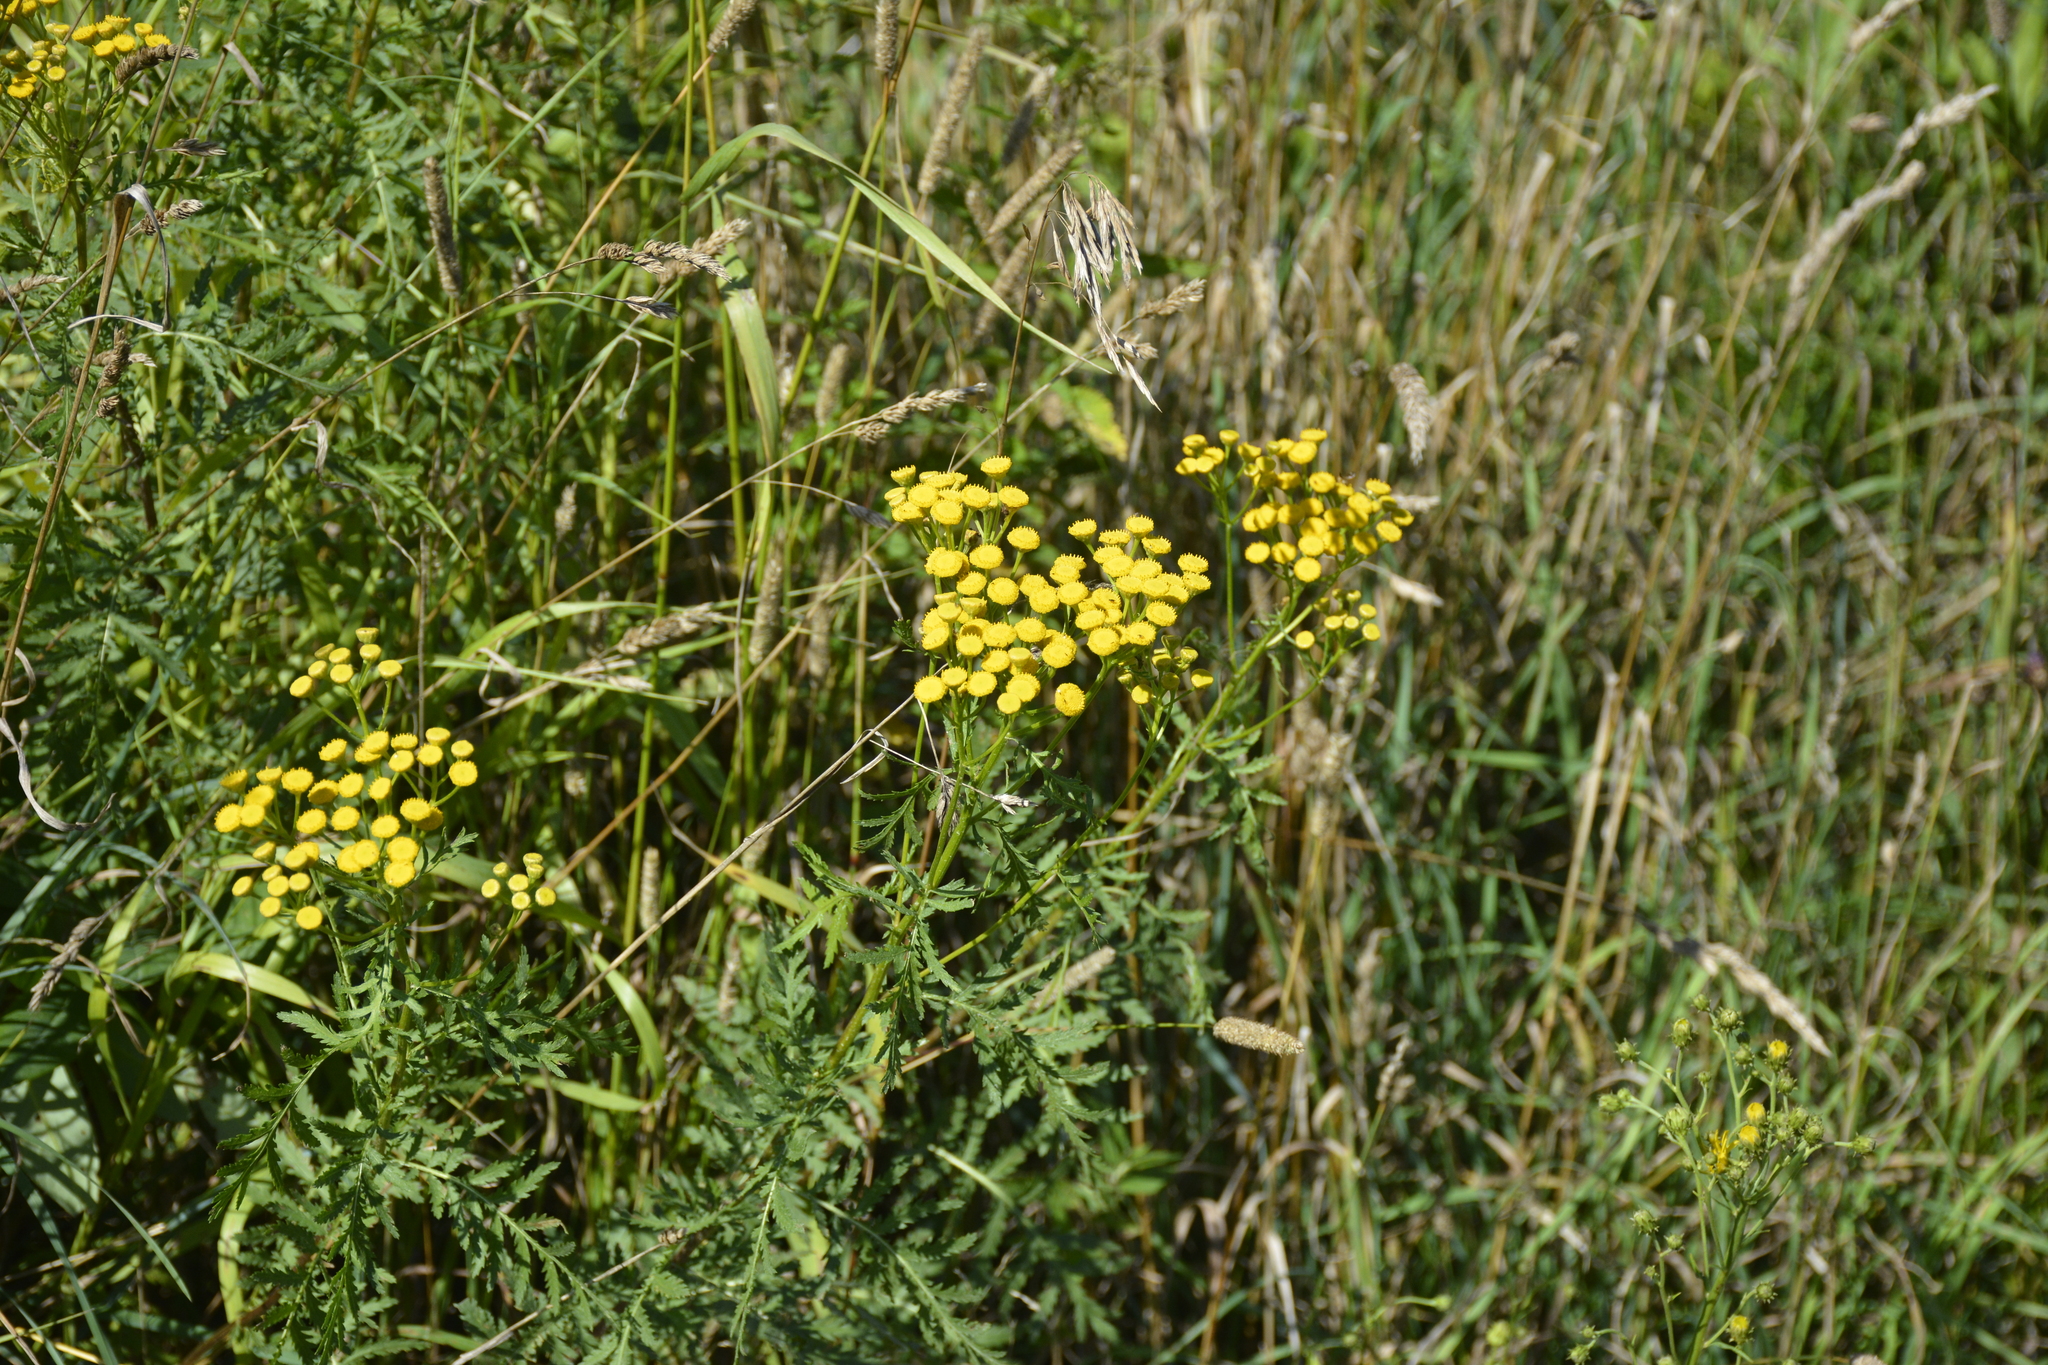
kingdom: Plantae
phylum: Tracheophyta
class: Magnoliopsida
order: Asterales
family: Asteraceae
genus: Tanacetum
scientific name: Tanacetum vulgare
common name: Common tansy
